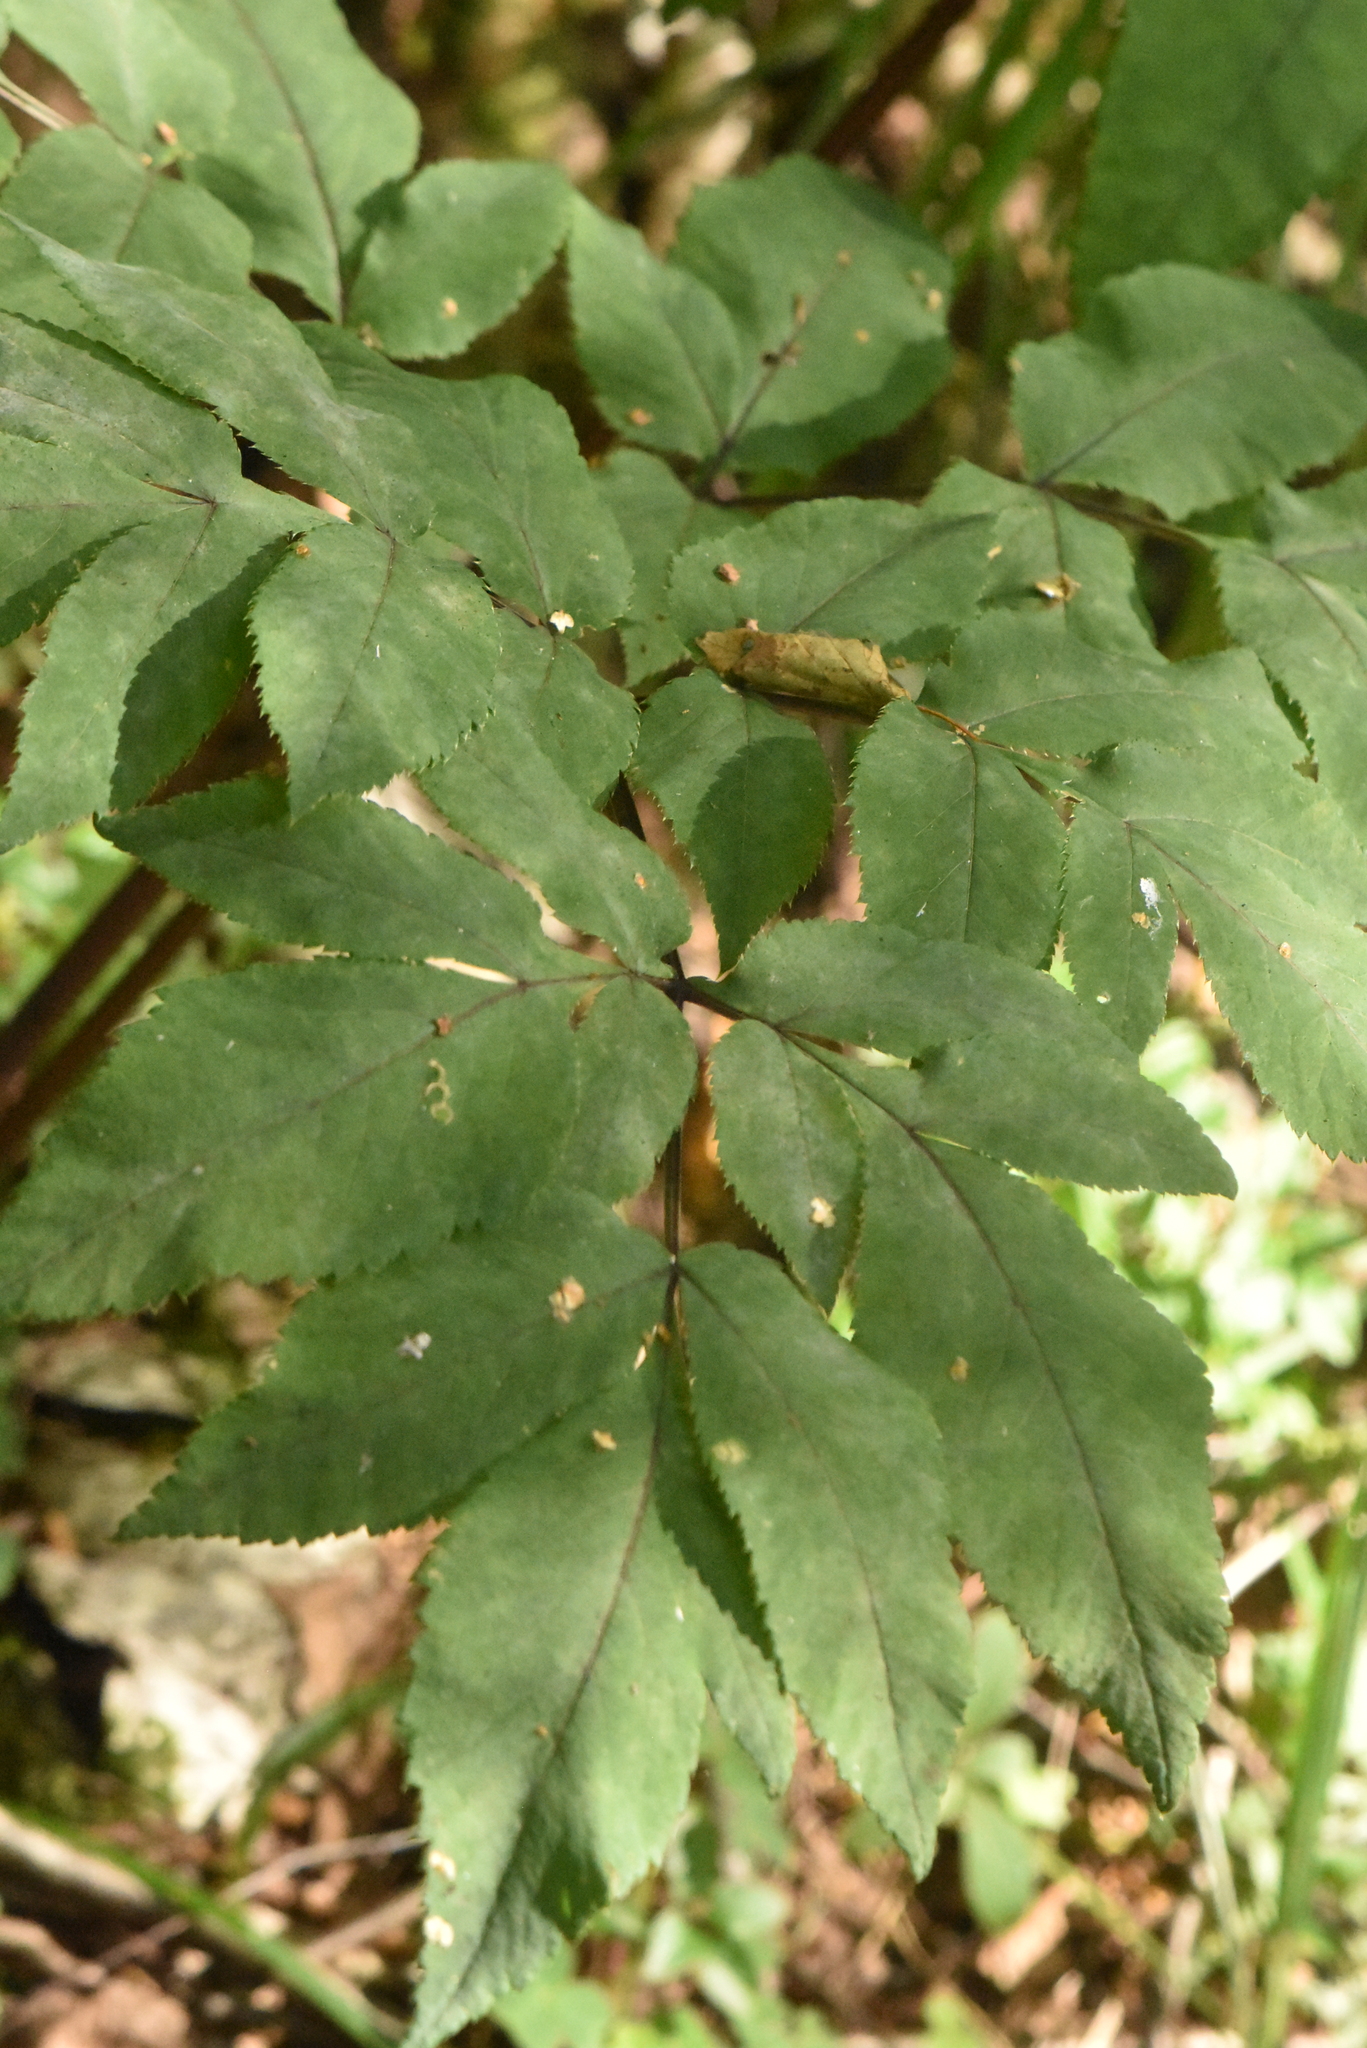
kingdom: Plantae
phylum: Tracheophyta
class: Magnoliopsida
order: Apiales
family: Apiaceae
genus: Angelica
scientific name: Angelica sylvestris
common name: Wild angelica
